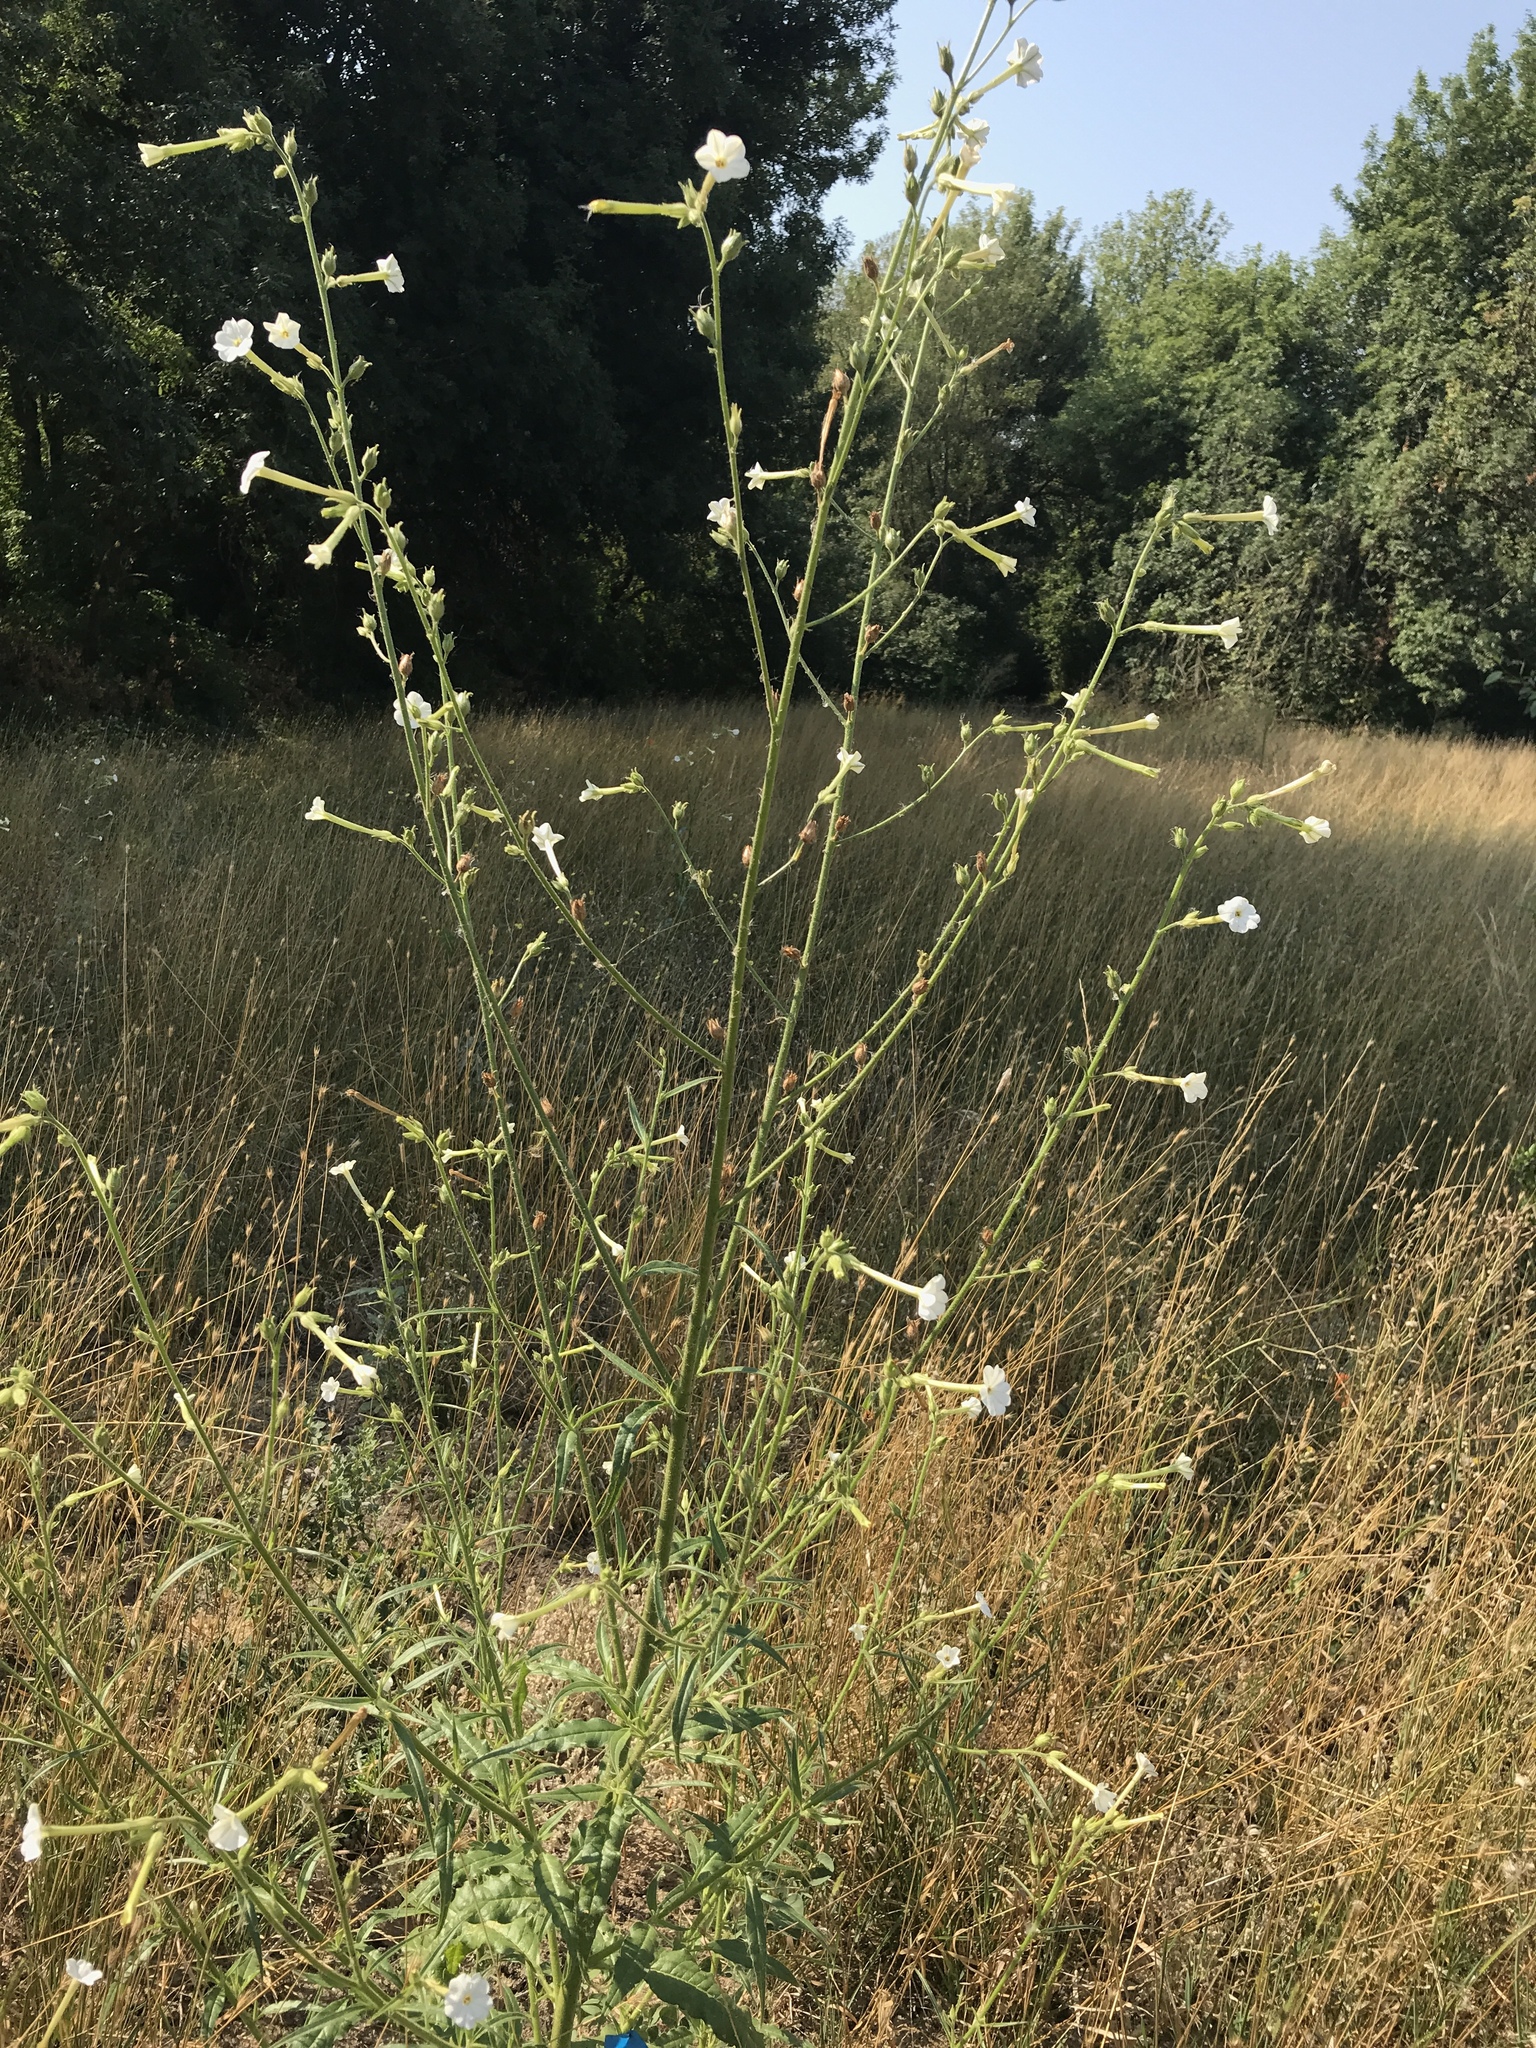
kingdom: Plantae
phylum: Tracheophyta
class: Magnoliopsida
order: Solanales
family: Solanaceae
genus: Nicotiana
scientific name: Nicotiana attenuata
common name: Coyote tobacco
